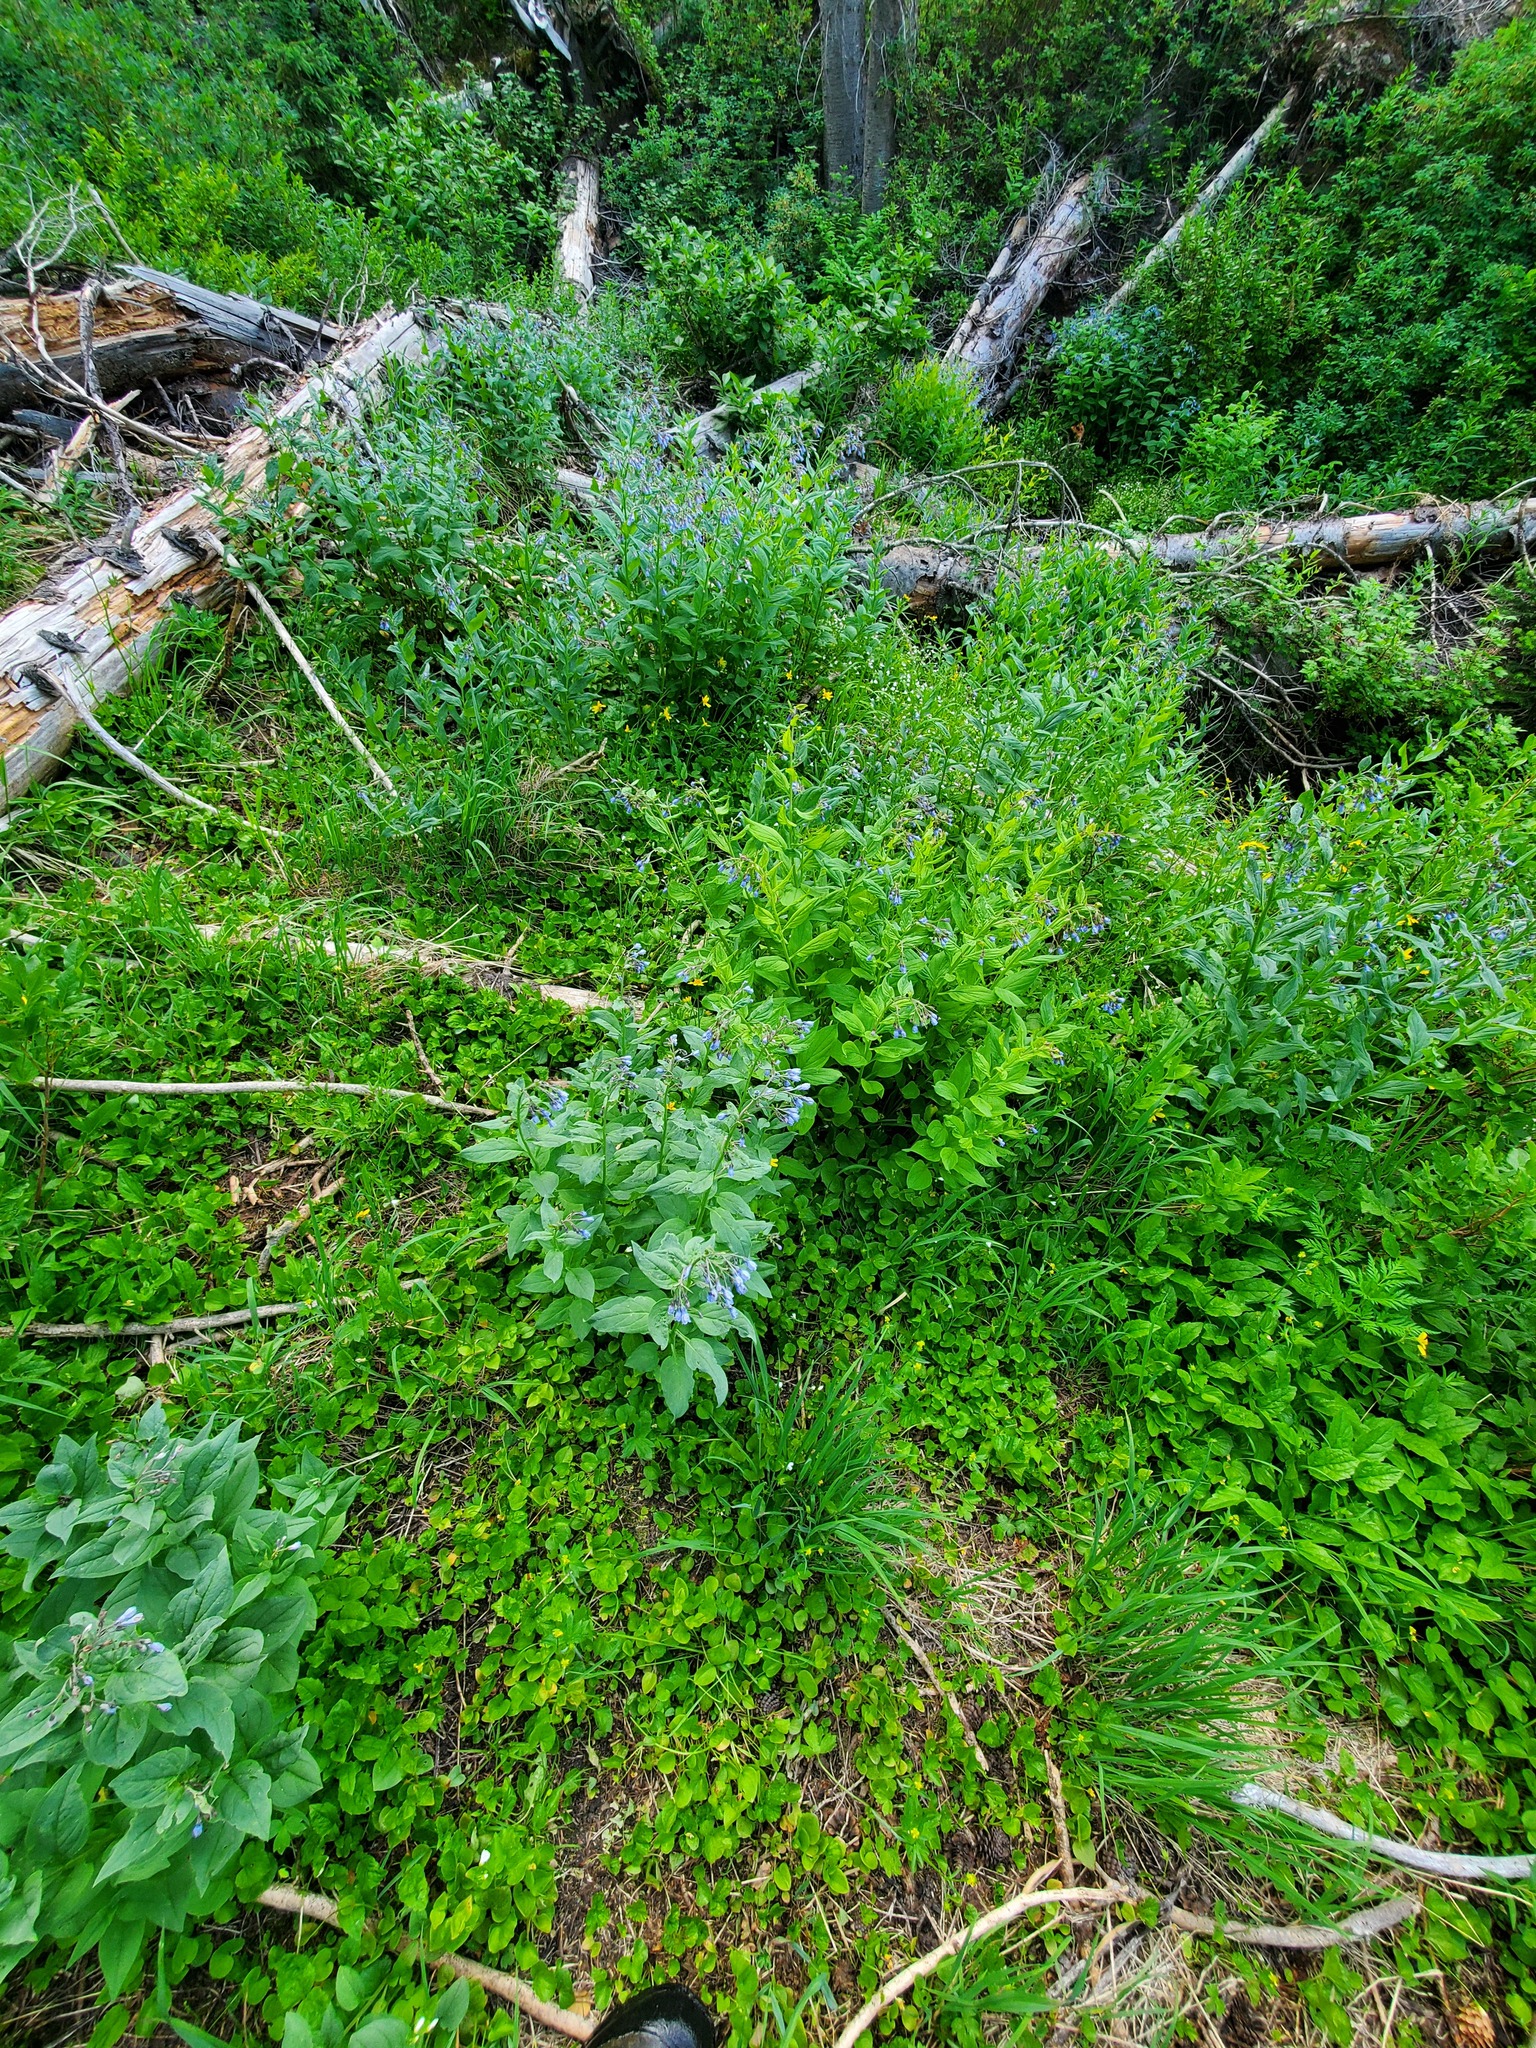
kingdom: Plantae
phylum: Tracheophyta
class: Magnoliopsida
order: Boraginales
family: Boraginaceae
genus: Mertensia
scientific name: Mertensia paniculata
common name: Panicled bluebells
